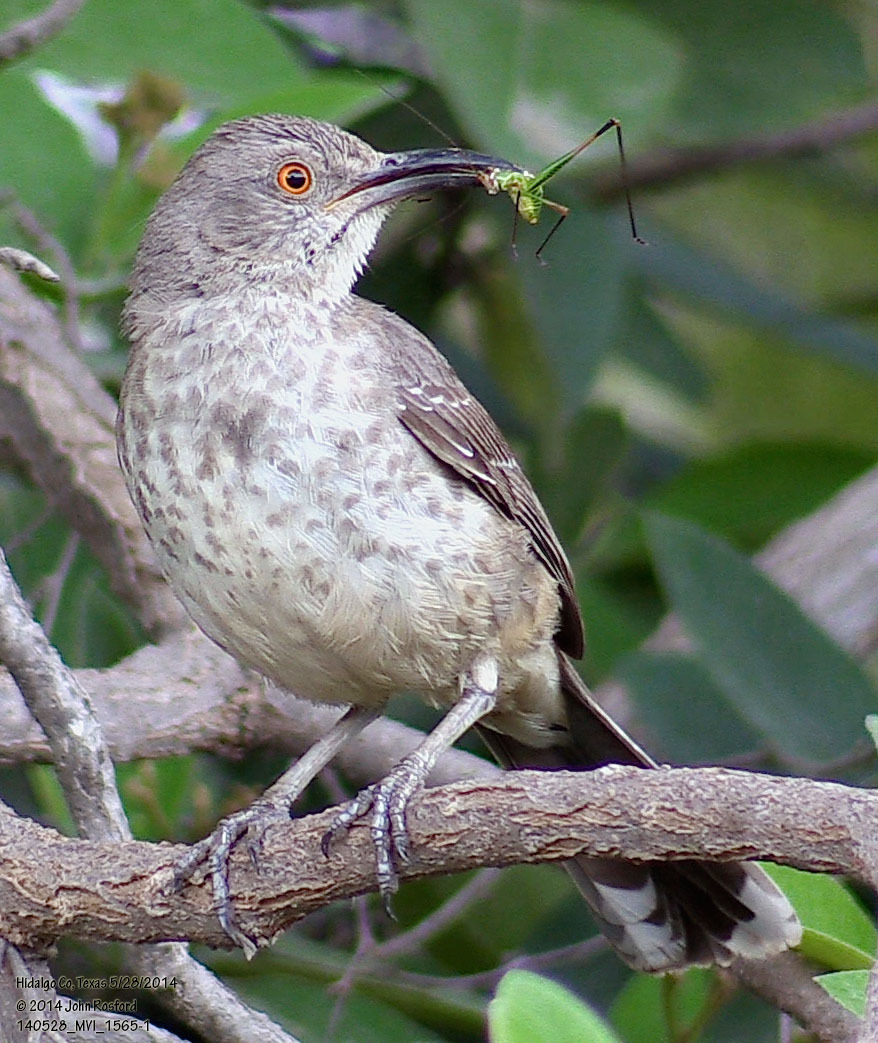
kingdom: Animalia
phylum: Chordata
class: Aves
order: Passeriformes
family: Mimidae
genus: Toxostoma
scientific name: Toxostoma curvirostre
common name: Curve-billed thrasher
